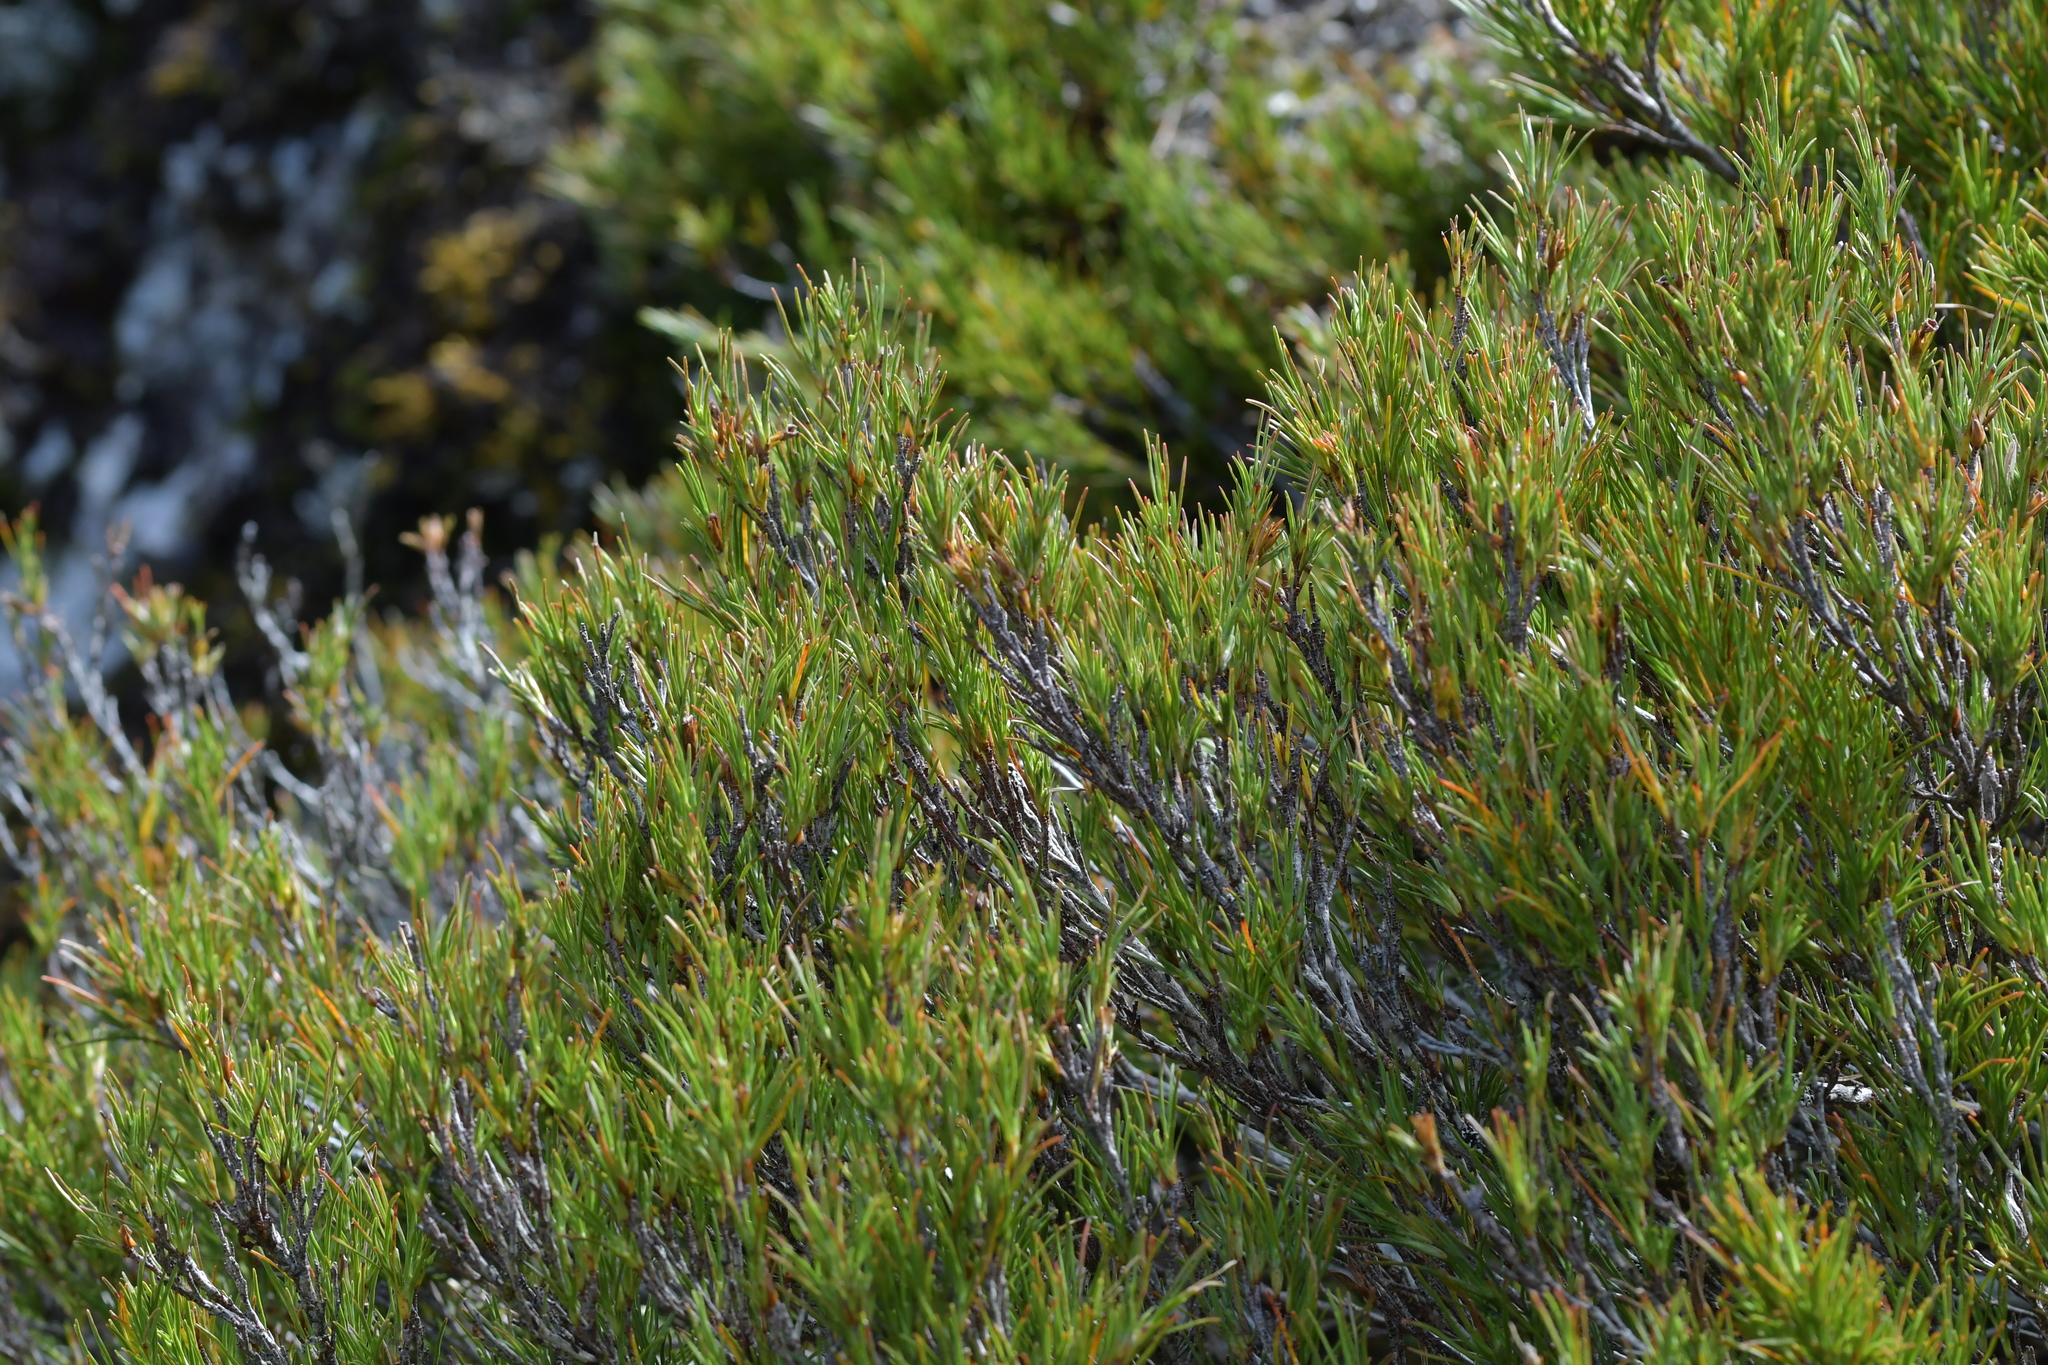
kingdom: Plantae
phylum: Tracheophyta
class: Magnoliopsida
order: Ericales
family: Ericaceae
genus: Dracophyllum
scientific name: Dracophyllum rosmarinifolium
